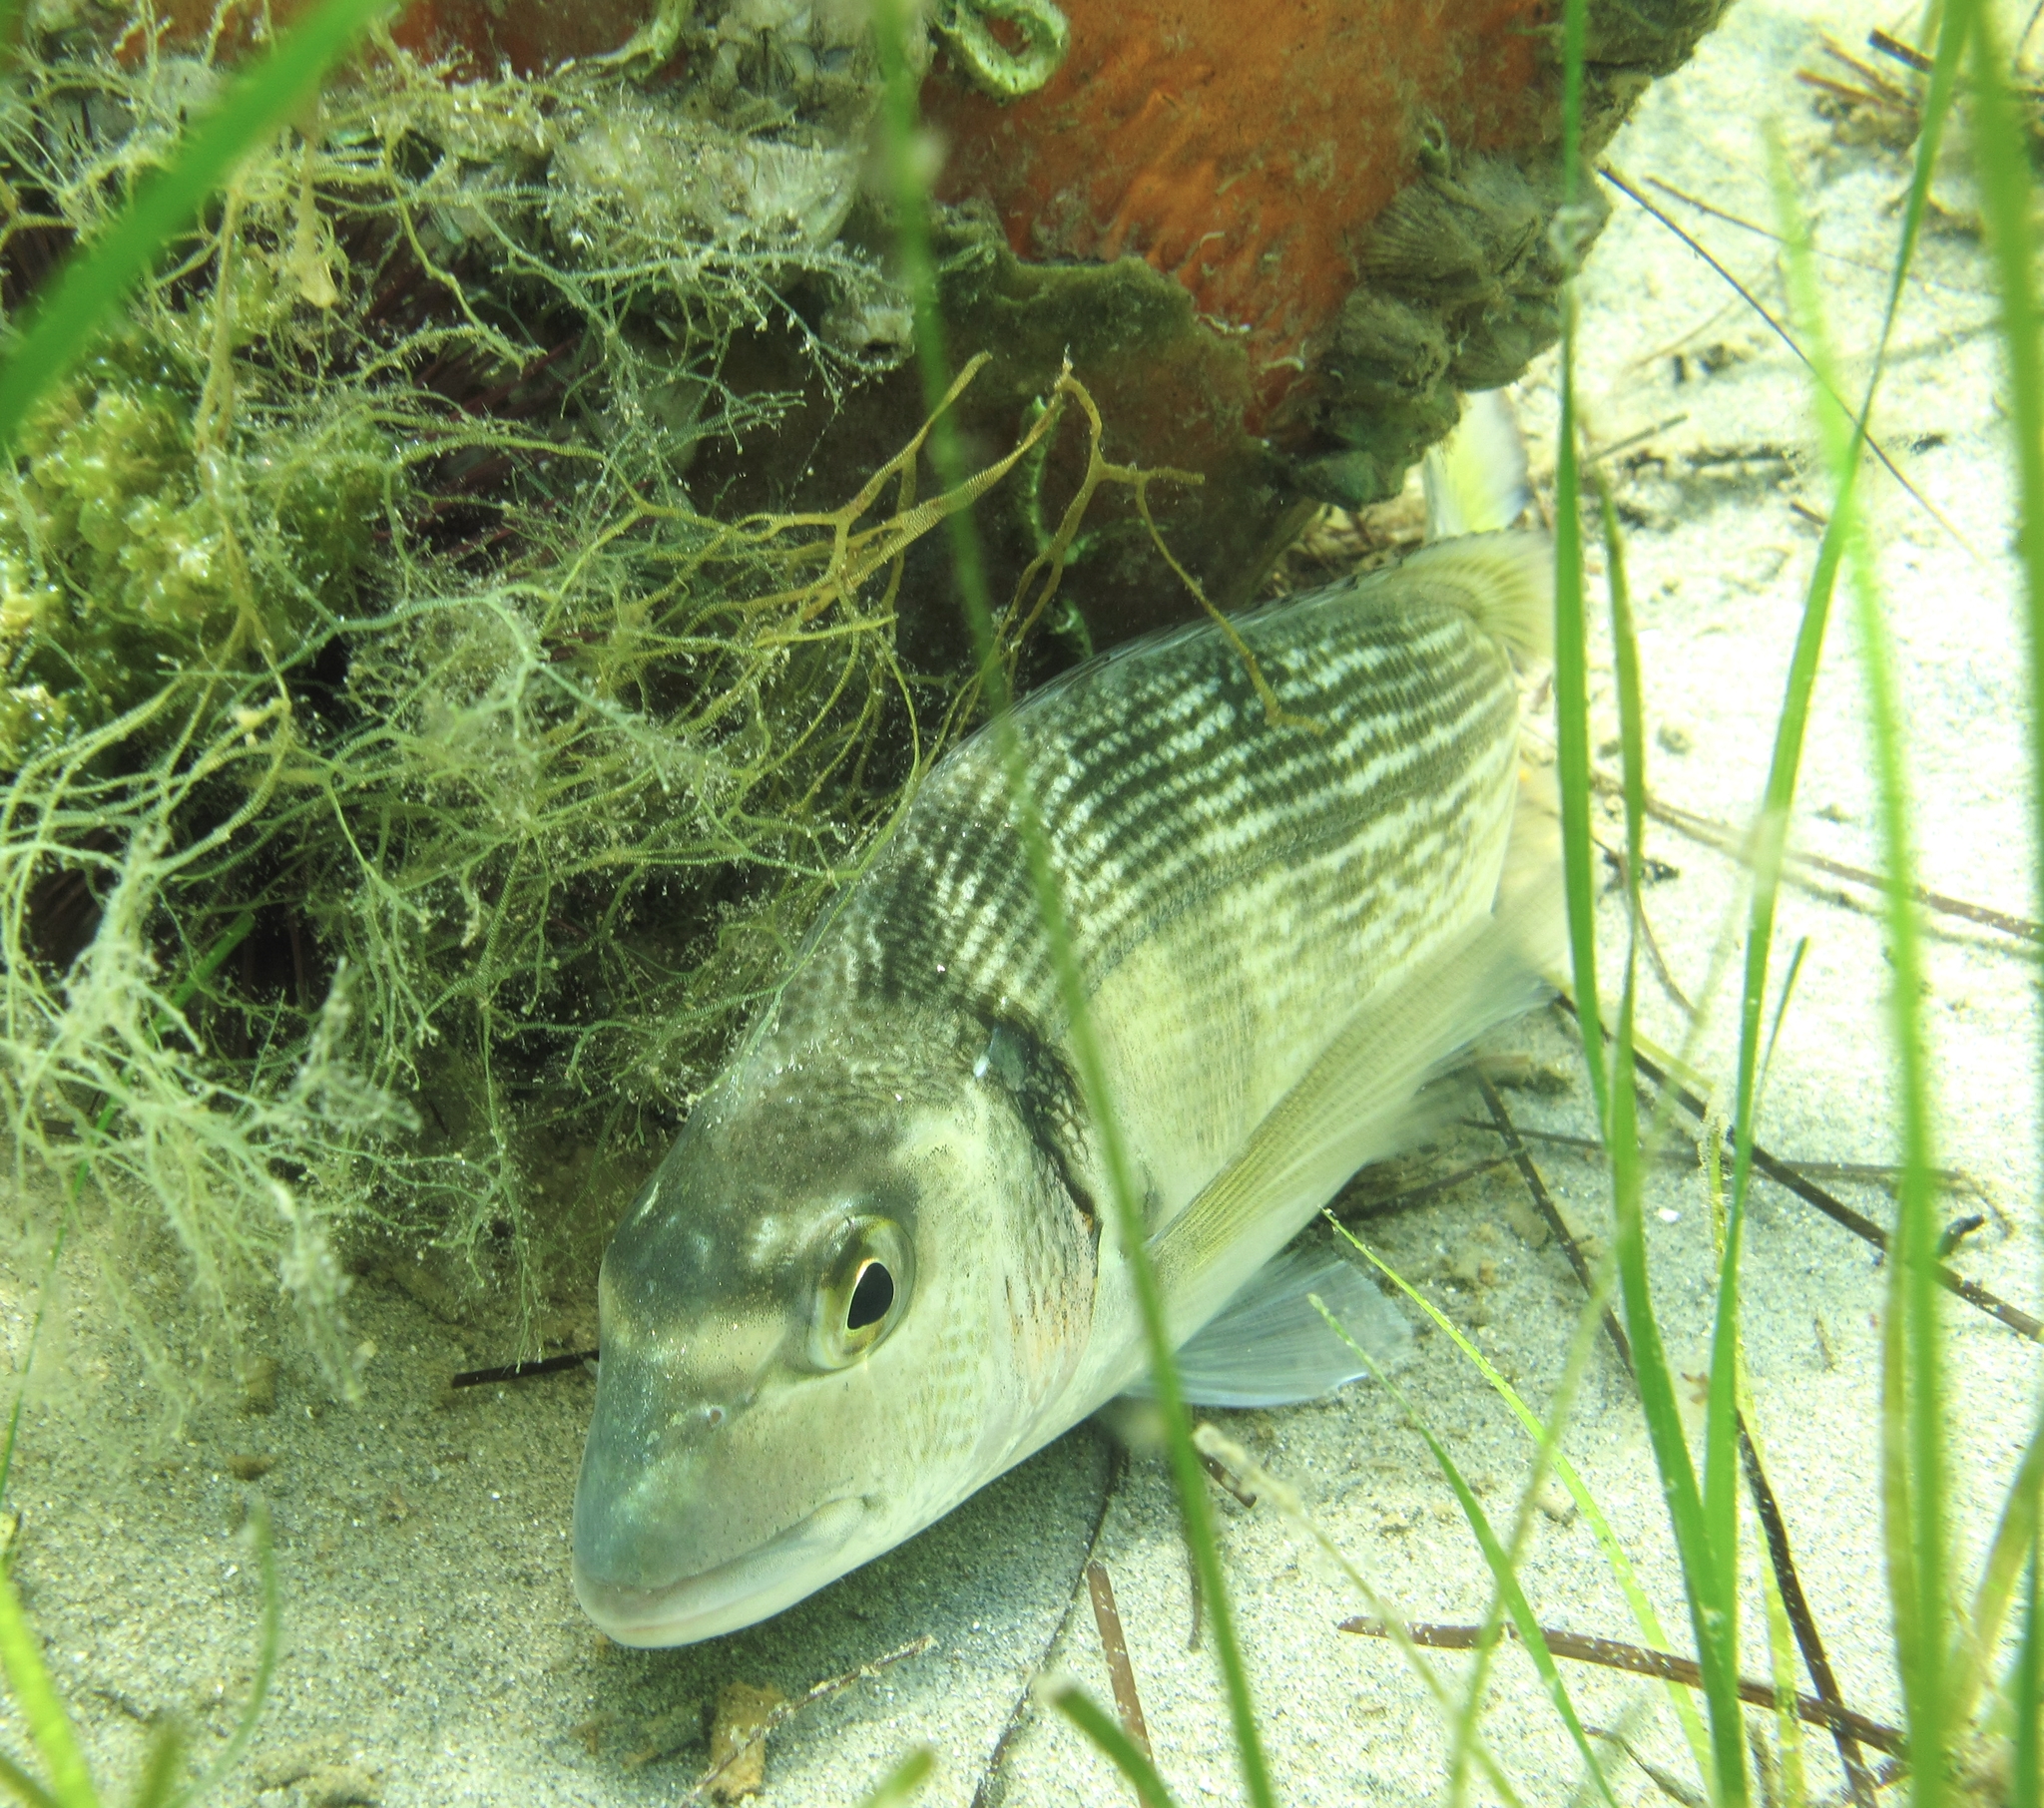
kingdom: Animalia
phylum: Chordata
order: Perciformes
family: Sparidae
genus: Sparus
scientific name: Sparus aurata
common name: Gilthead
